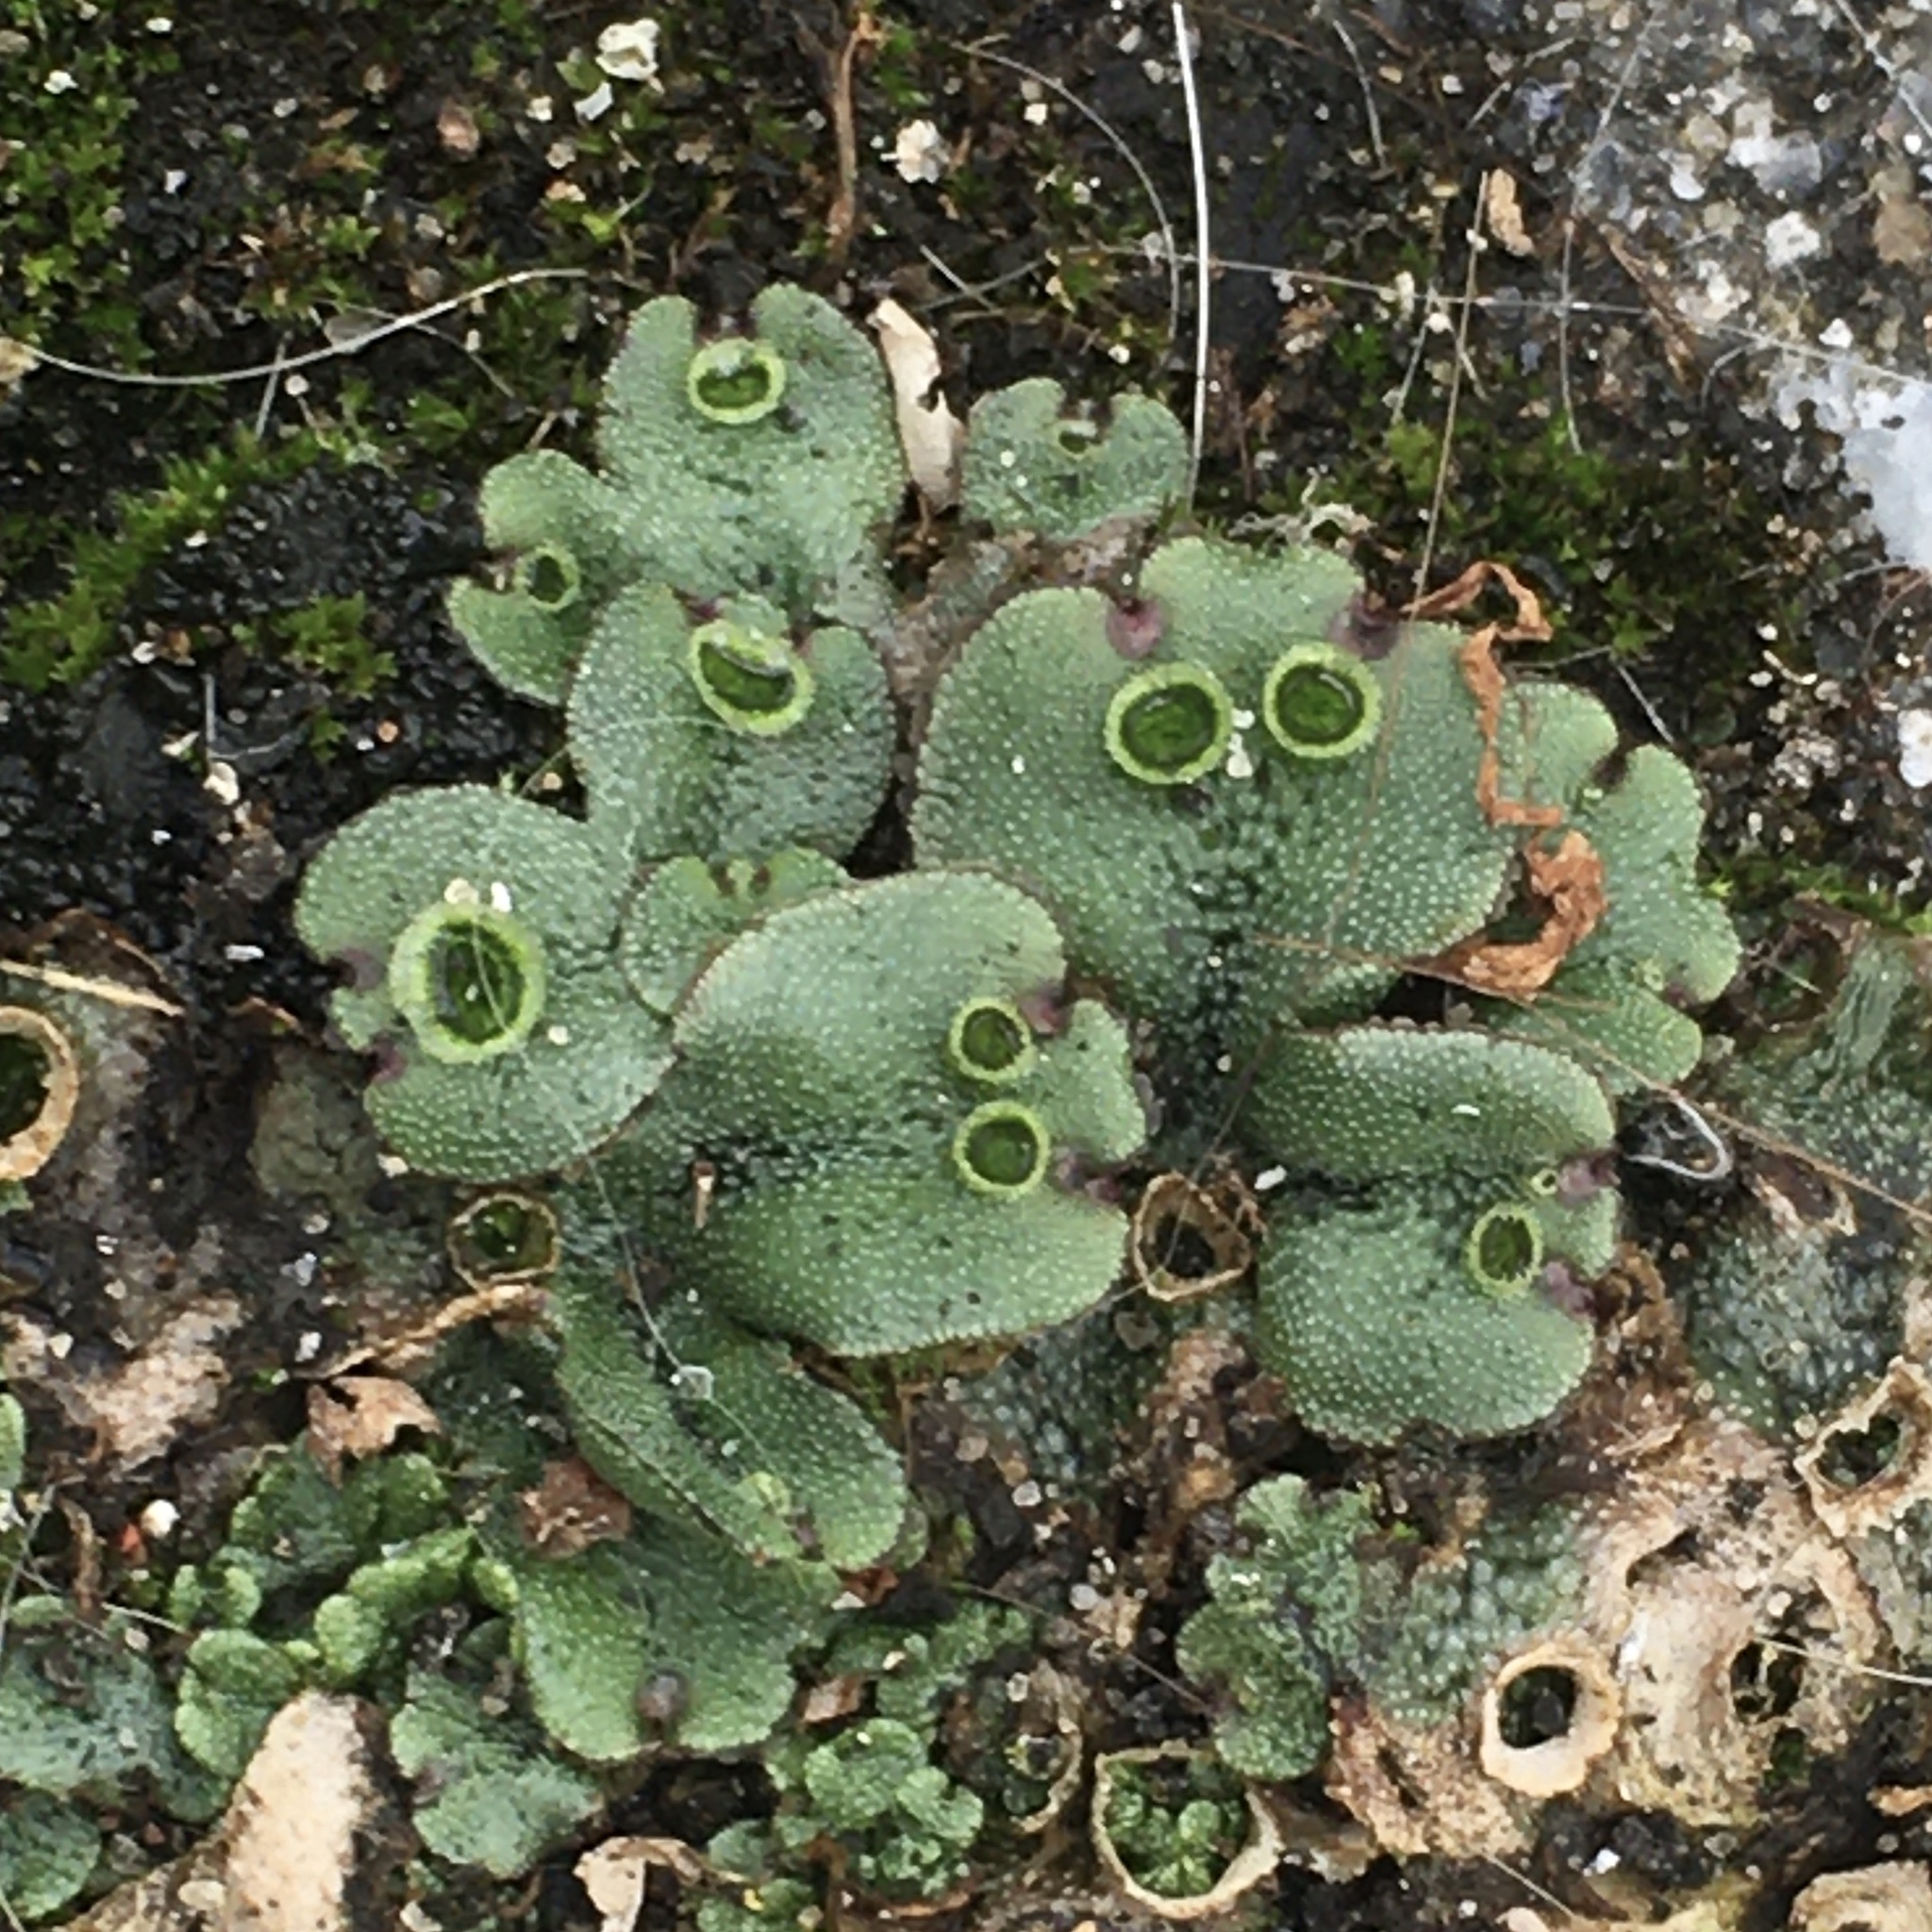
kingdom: Plantae
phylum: Marchantiophyta
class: Marchantiopsida
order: Marchantiales
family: Marchantiaceae
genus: Marchantia
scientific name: Marchantia polymorpha
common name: Common liverwort
